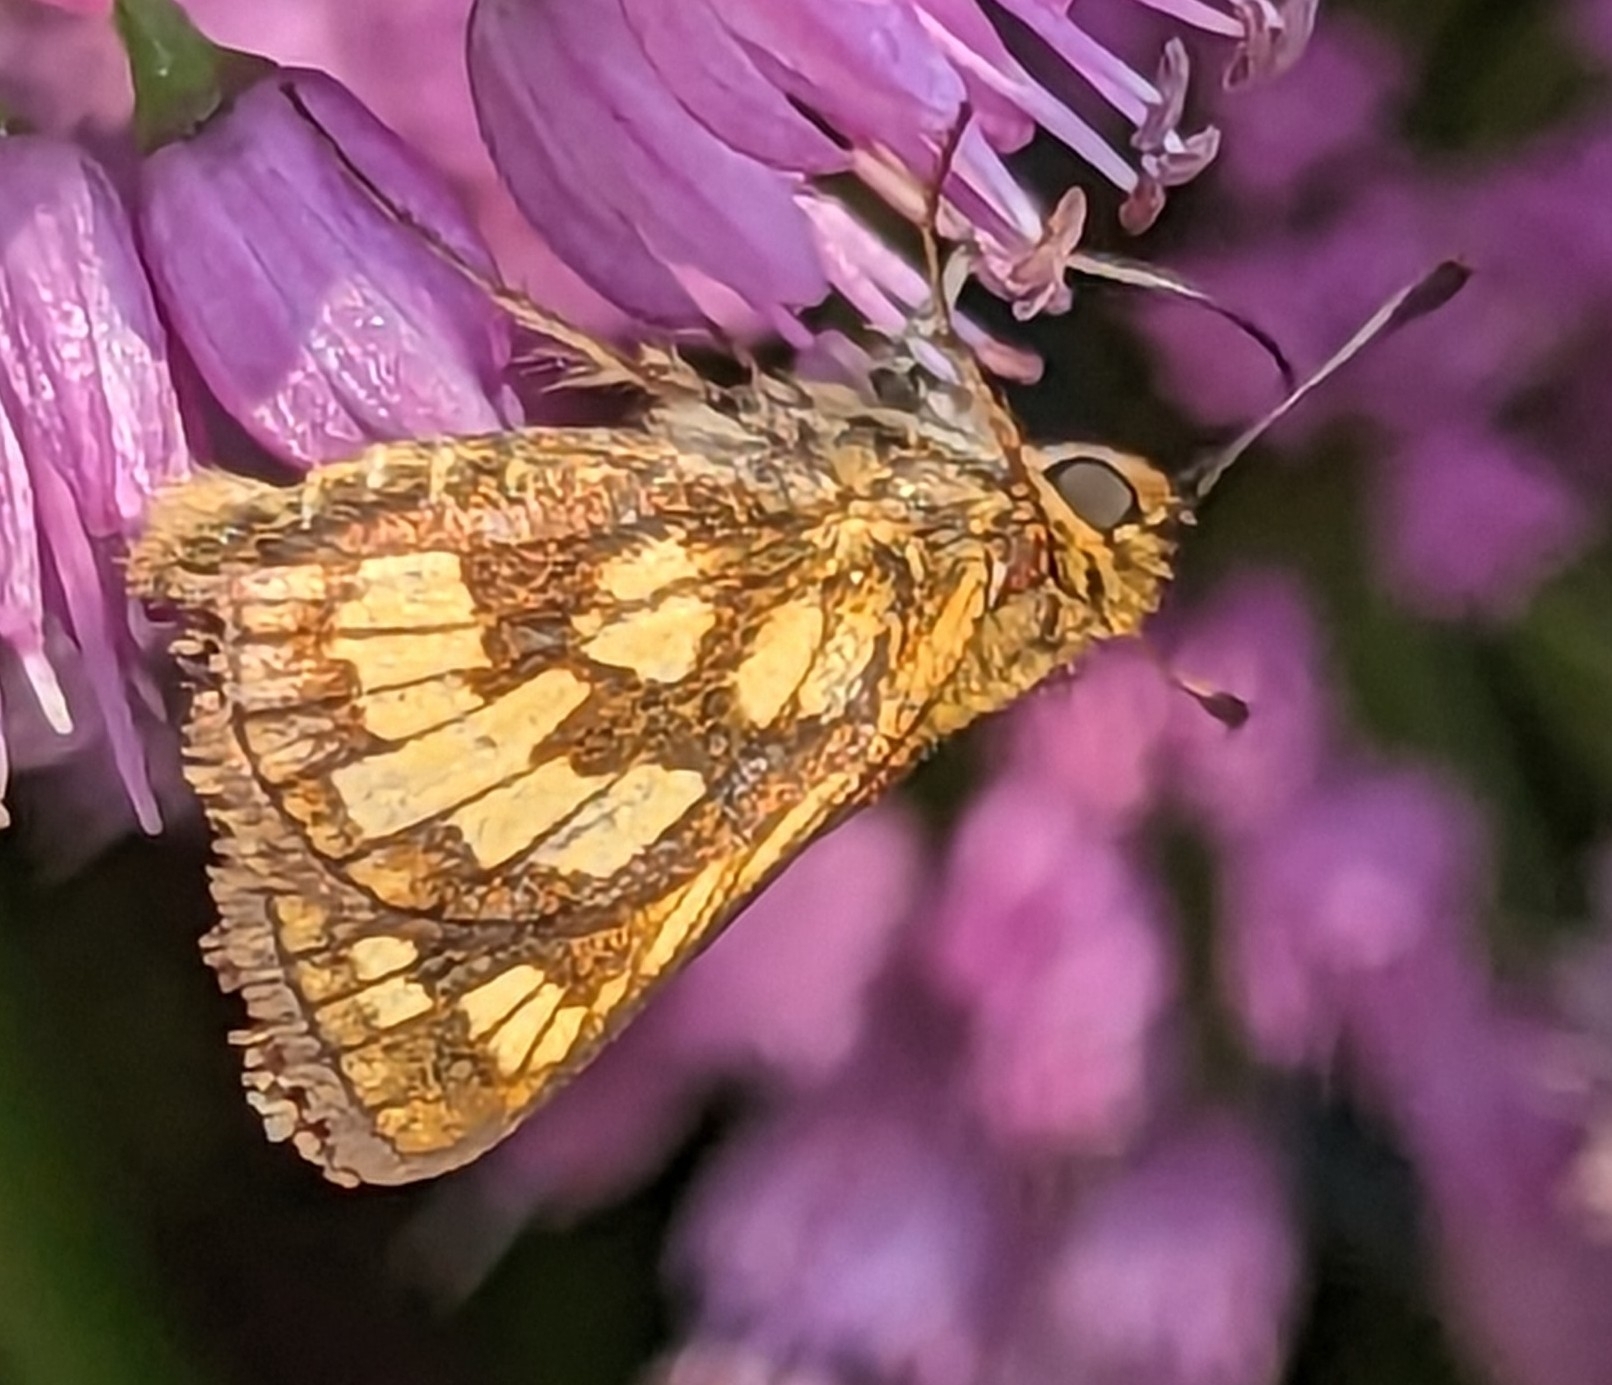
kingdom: Animalia
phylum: Arthropoda
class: Insecta
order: Lepidoptera
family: Hesperiidae
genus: Polites
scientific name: Polites coras
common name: Peck's skipper
